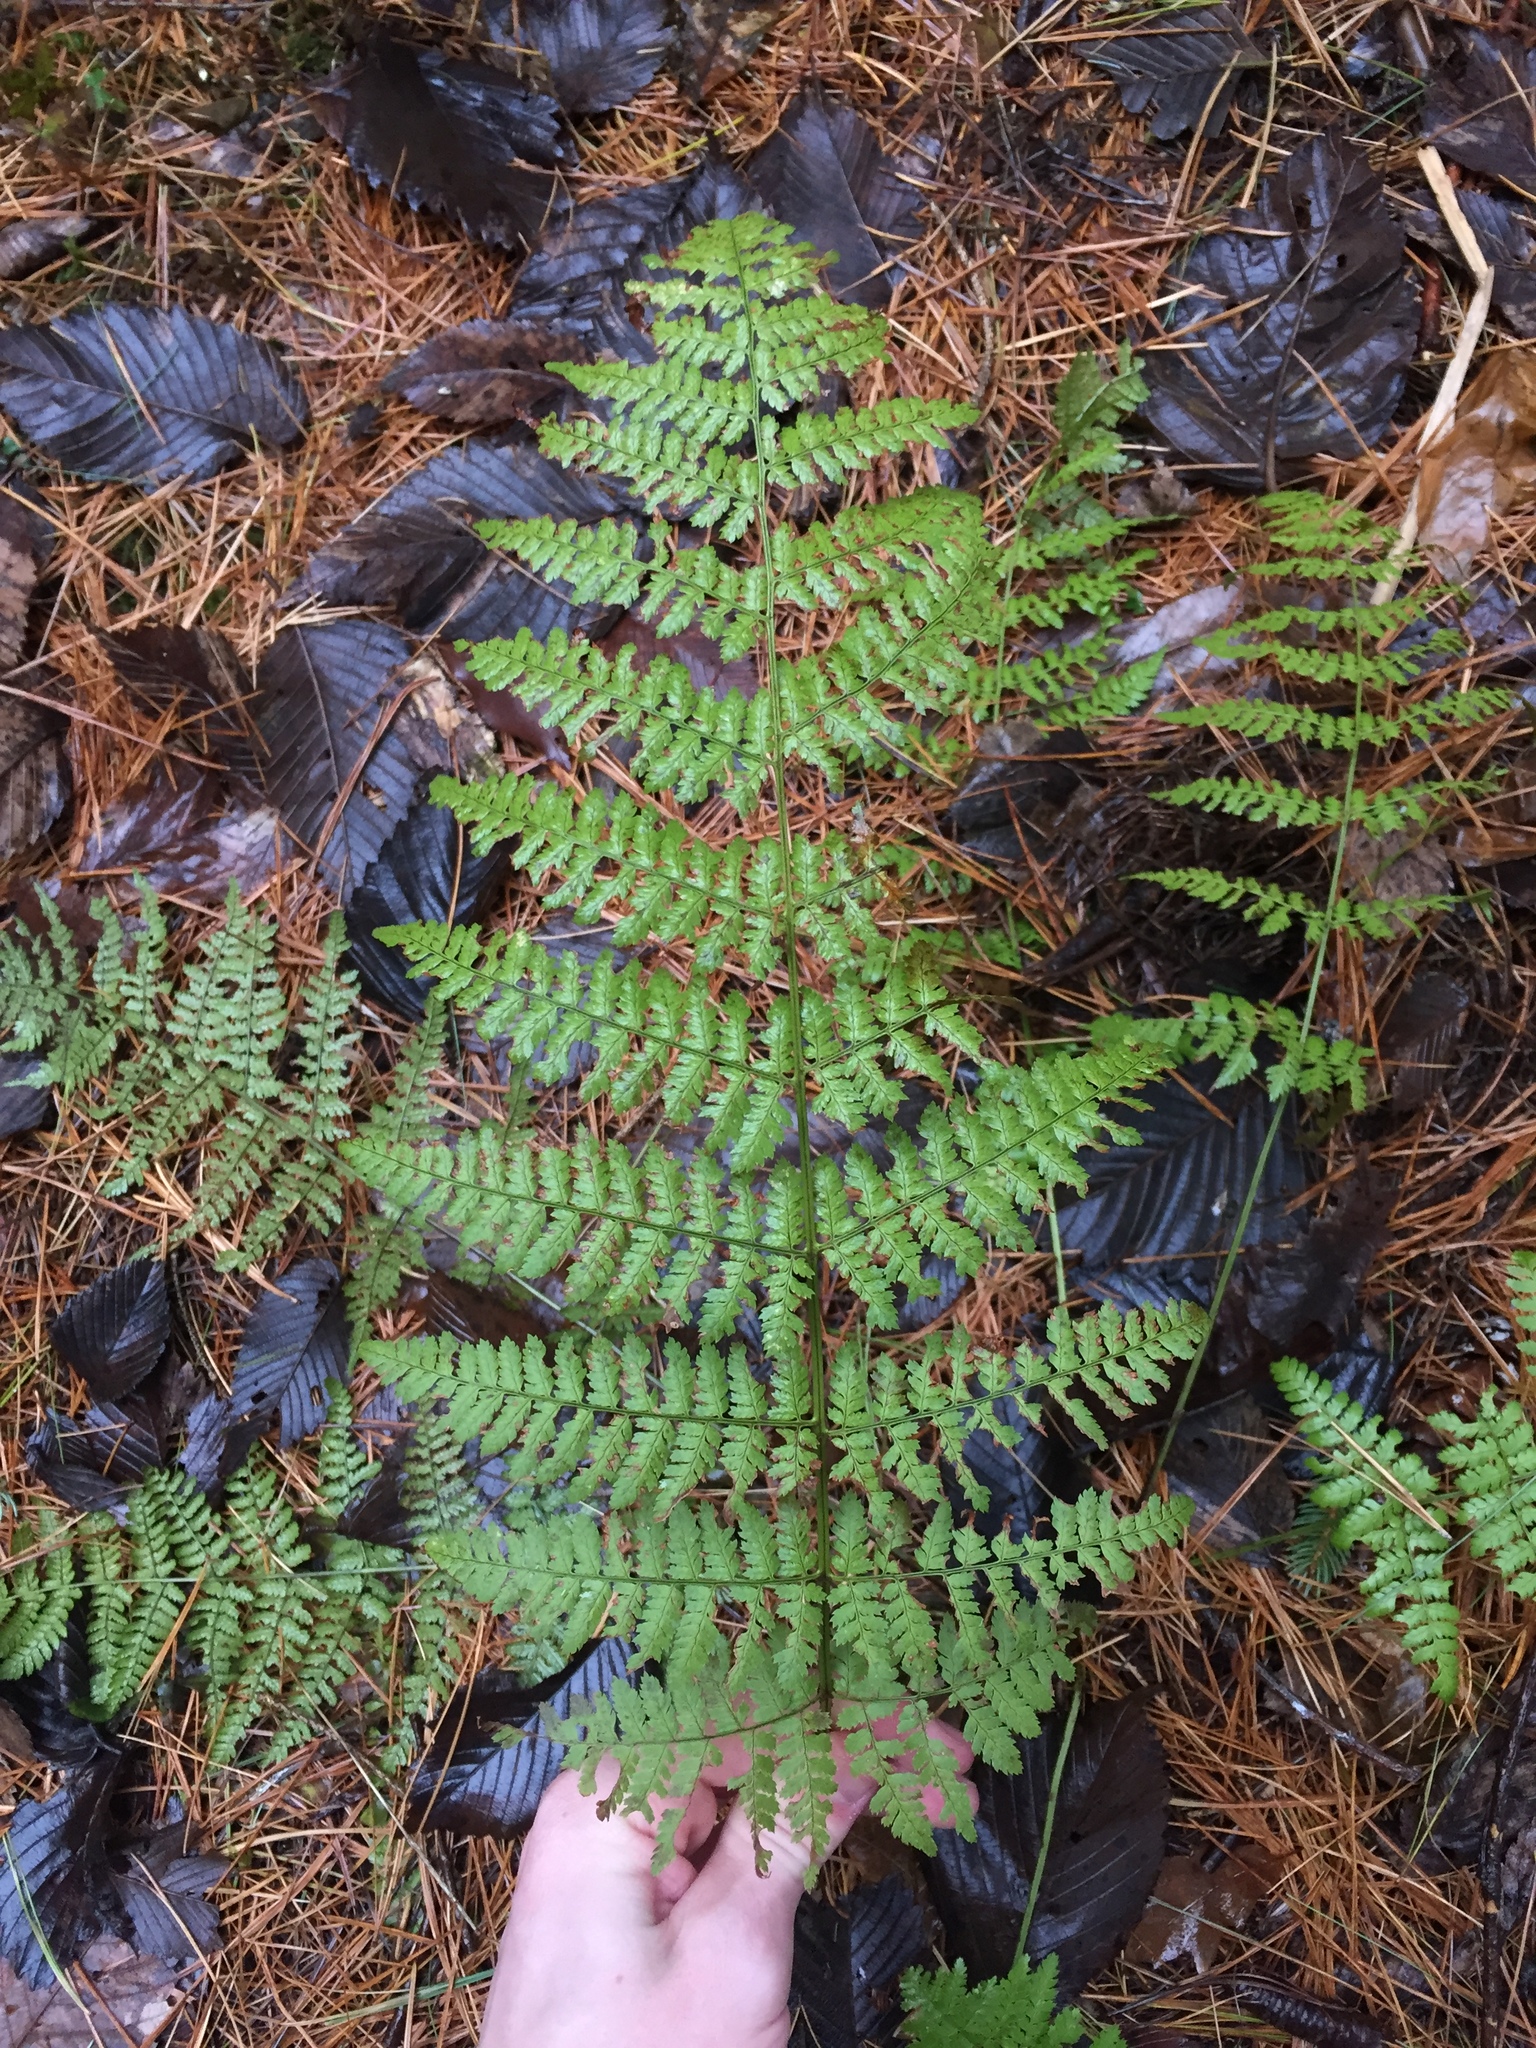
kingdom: Plantae
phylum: Tracheophyta
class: Polypodiopsida
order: Polypodiales
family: Dryopteridaceae
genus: Dryopteris
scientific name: Dryopteris intermedia
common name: Evergreen wood fern
